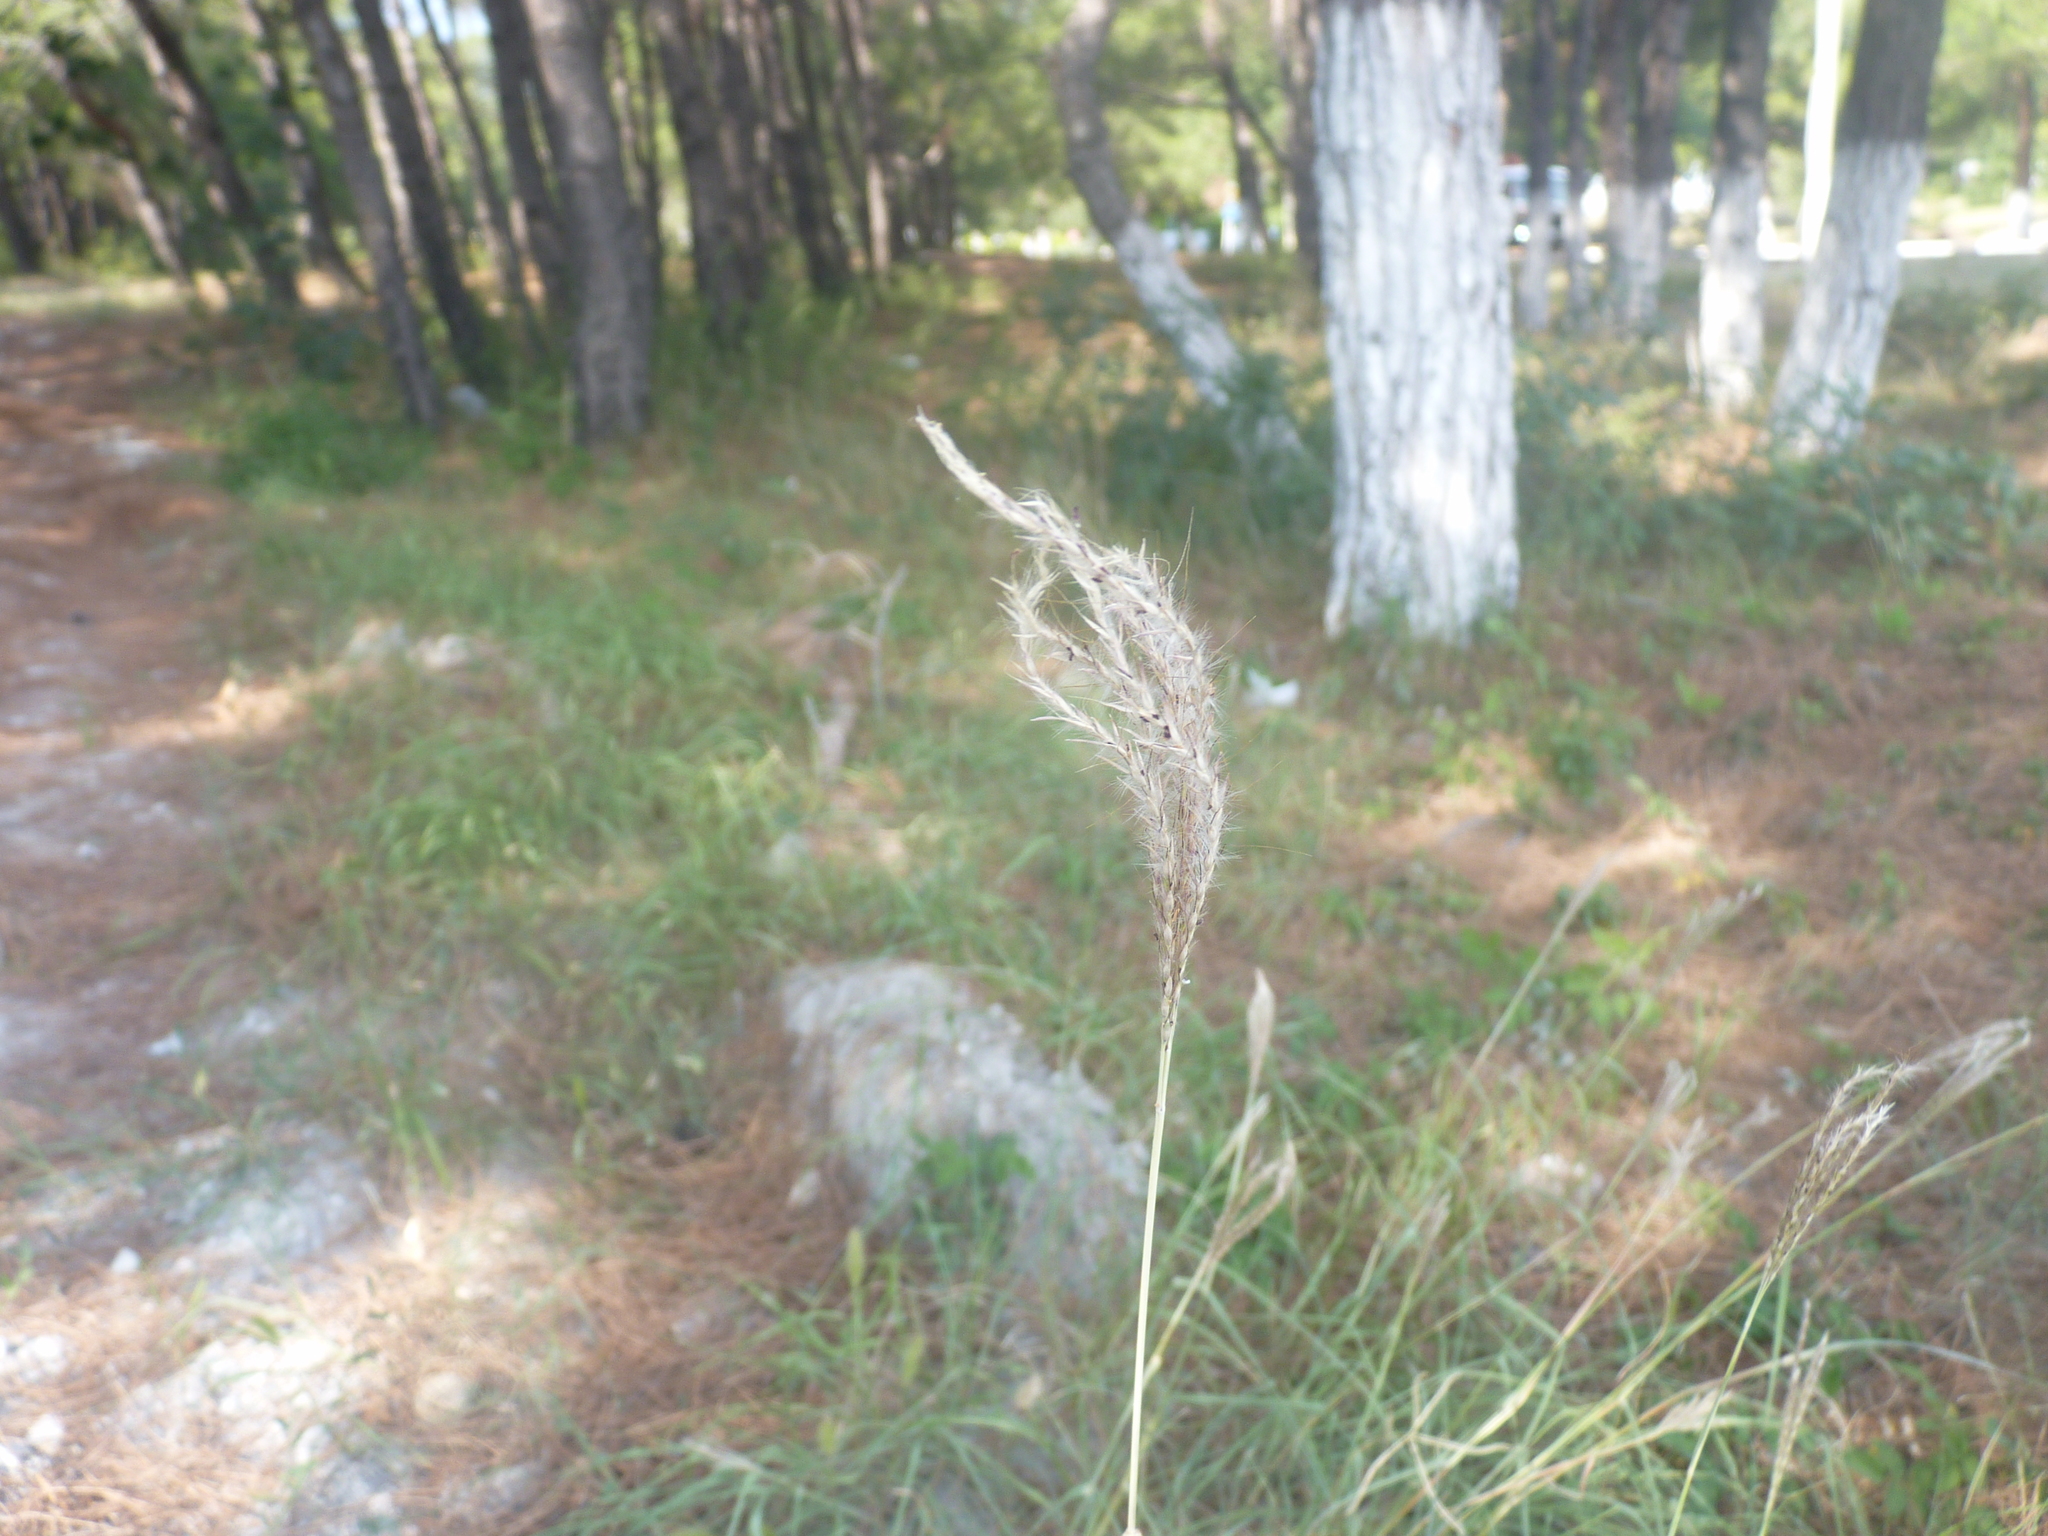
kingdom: Plantae
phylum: Tracheophyta
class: Liliopsida
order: Poales
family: Poaceae
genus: Bothriochloa
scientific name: Bothriochloa ischaemum
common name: Yellow bluestem
